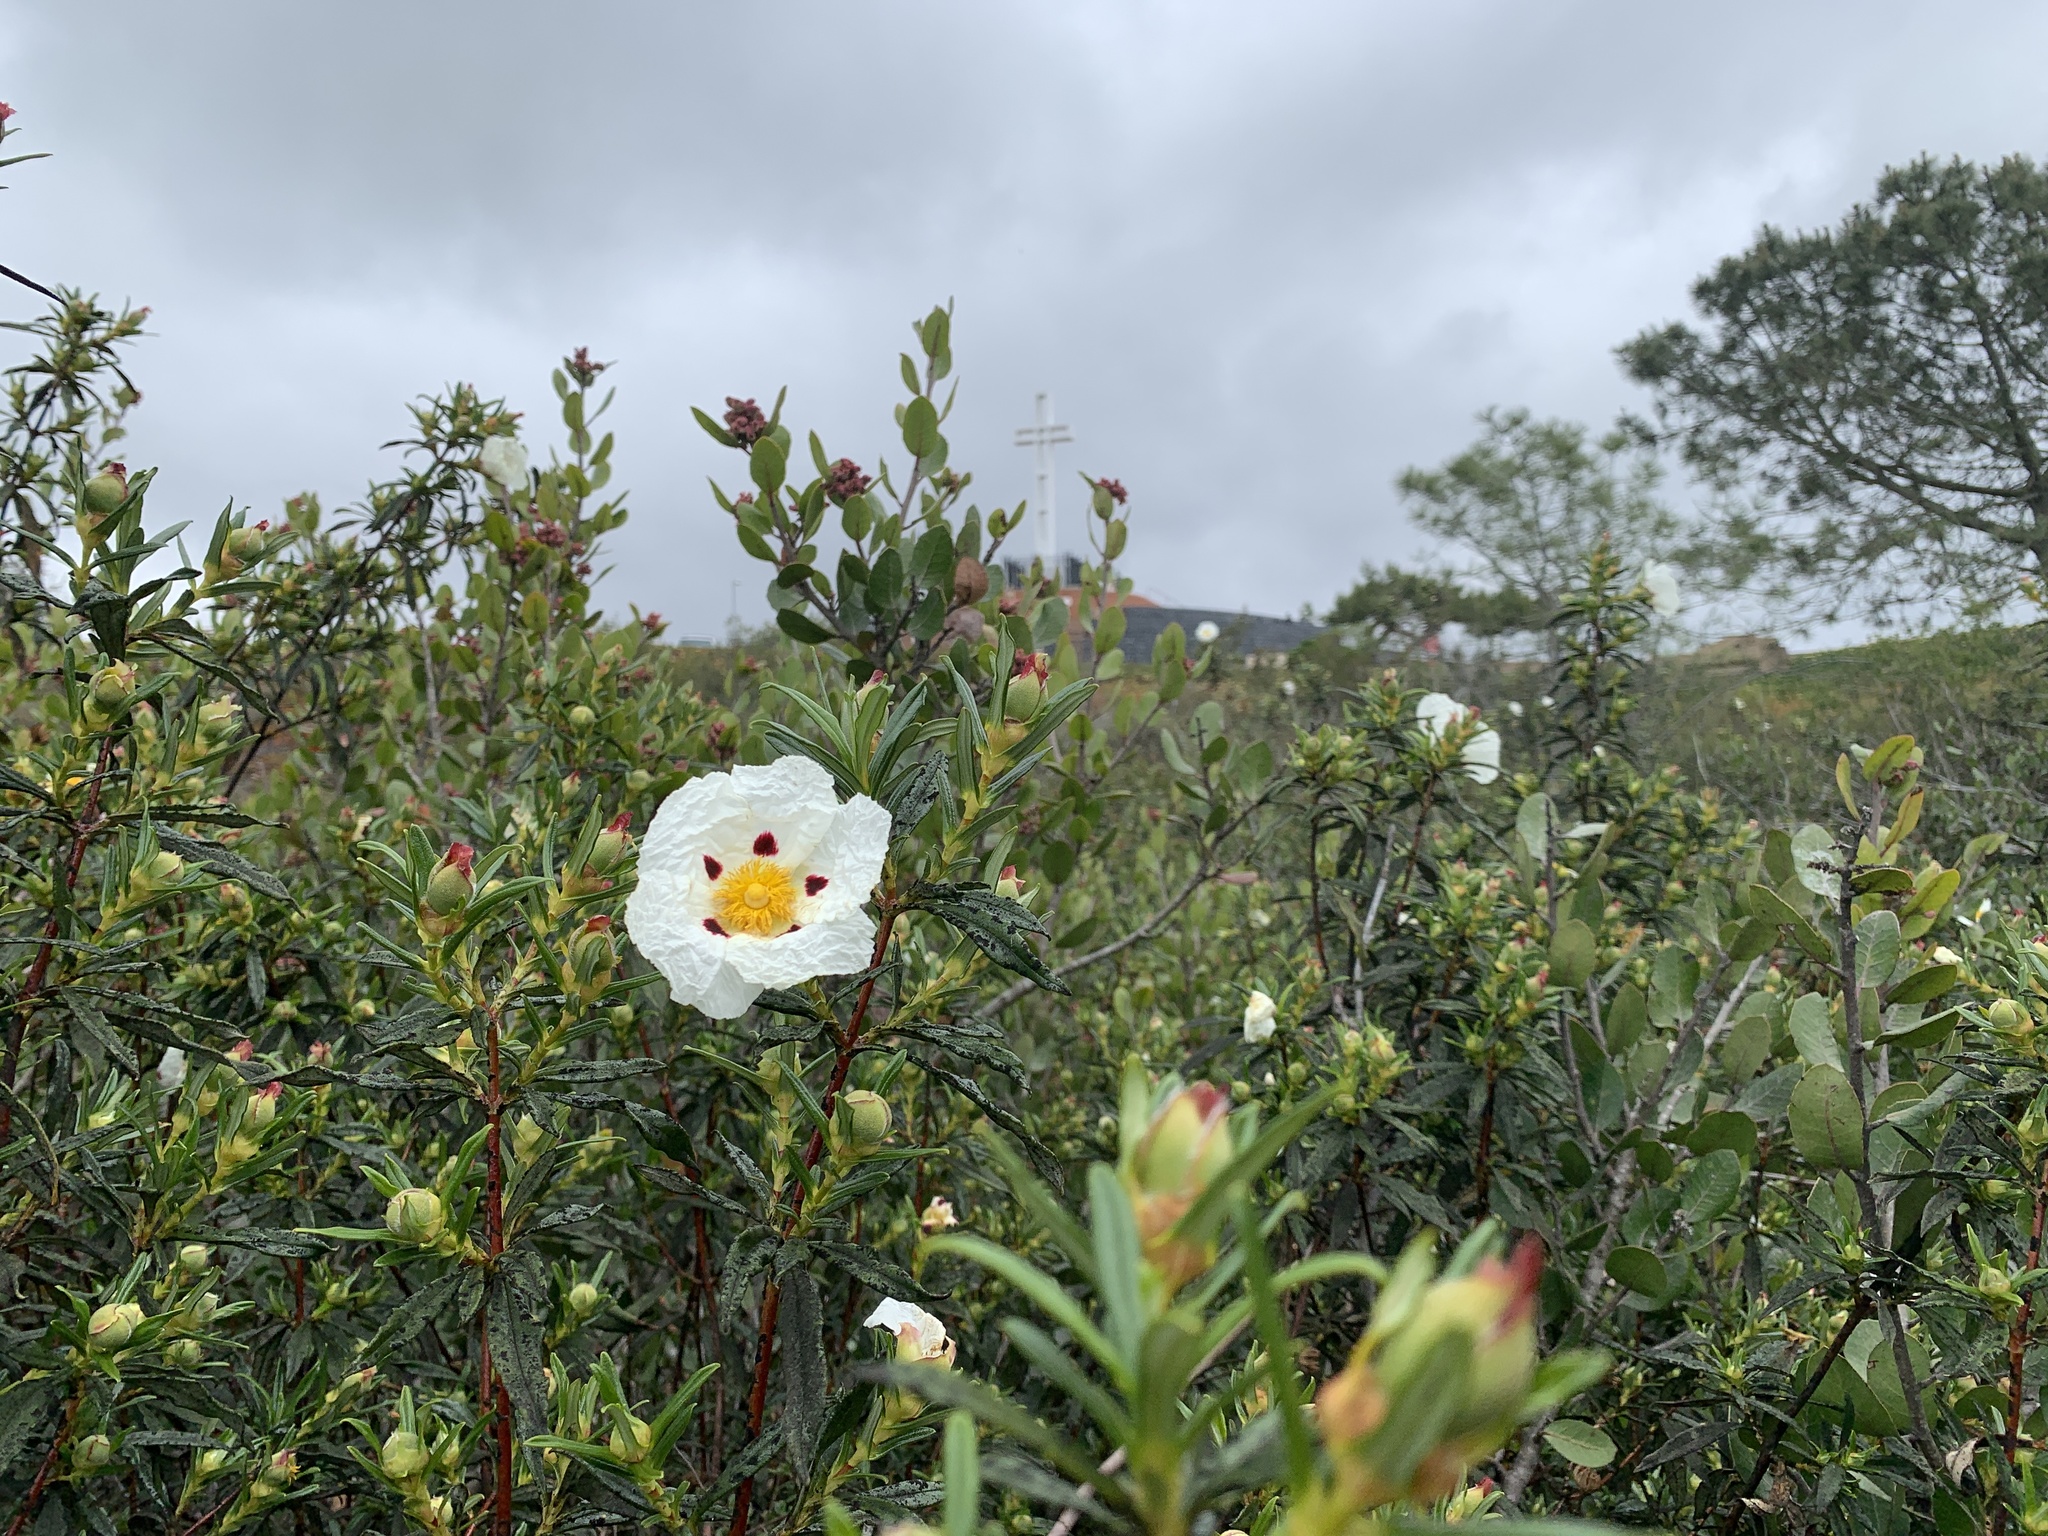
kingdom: Plantae
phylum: Tracheophyta
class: Magnoliopsida
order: Malvales
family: Cistaceae
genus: Cistus
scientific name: Cistus ladanifer
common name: Common gum cistus
